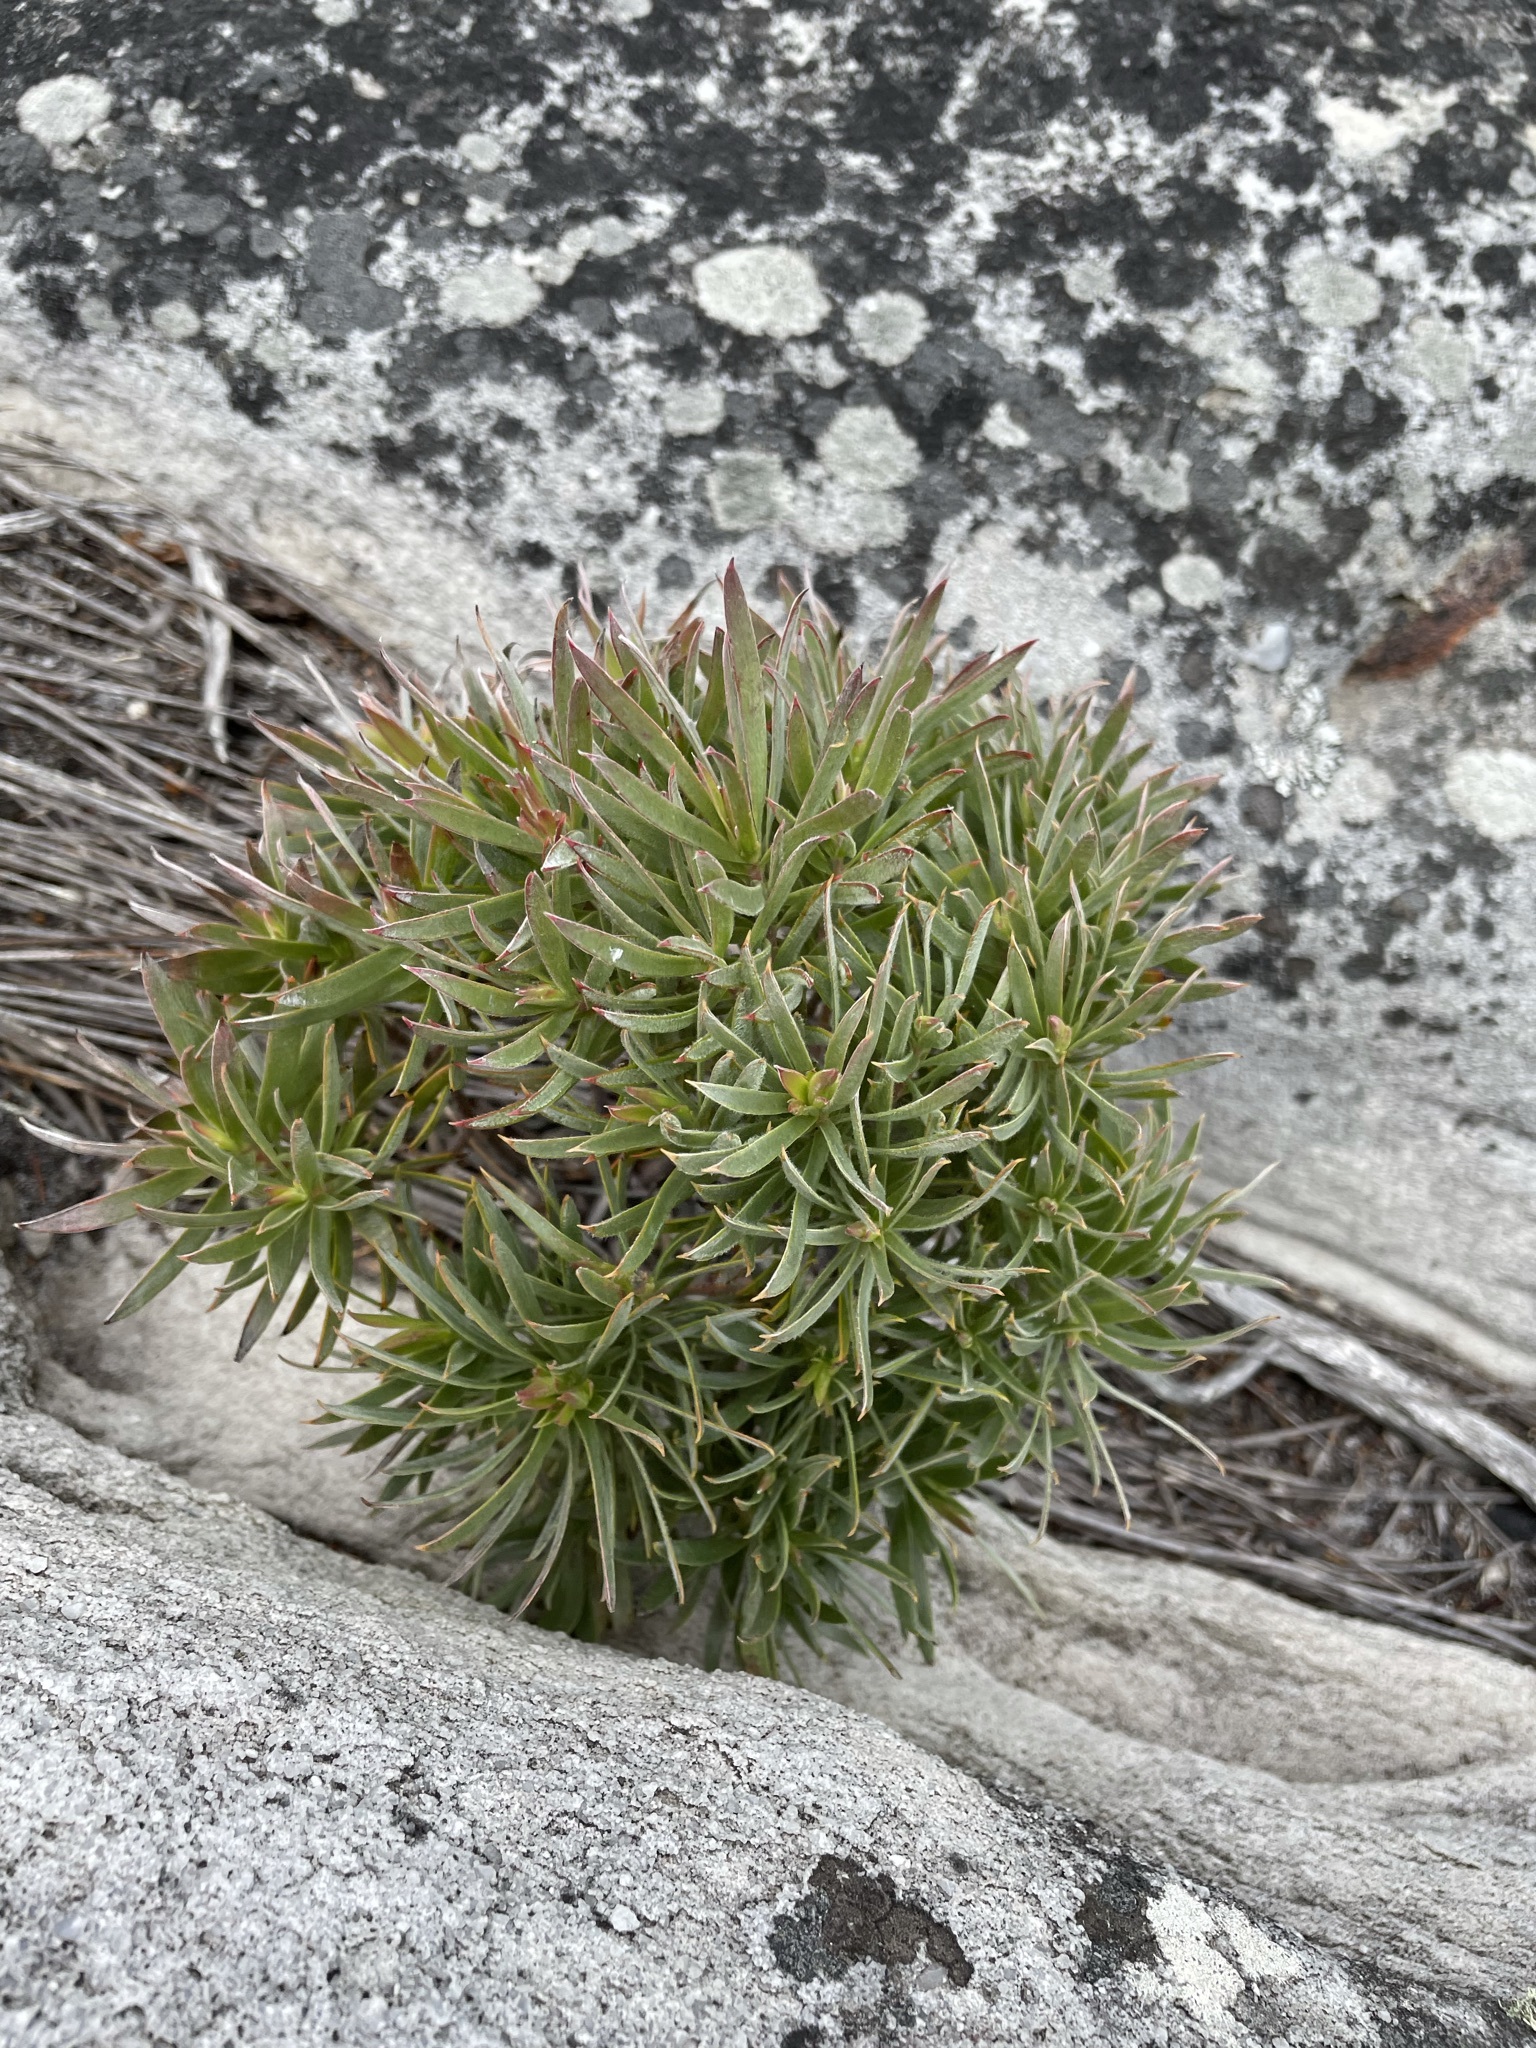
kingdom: Plantae
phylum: Tracheophyta
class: Magnoliopsida
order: Proteales
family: Proteaceae
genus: Leucadendron
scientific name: Leucadendron xanthoconus
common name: Sickle-leaf conebush
